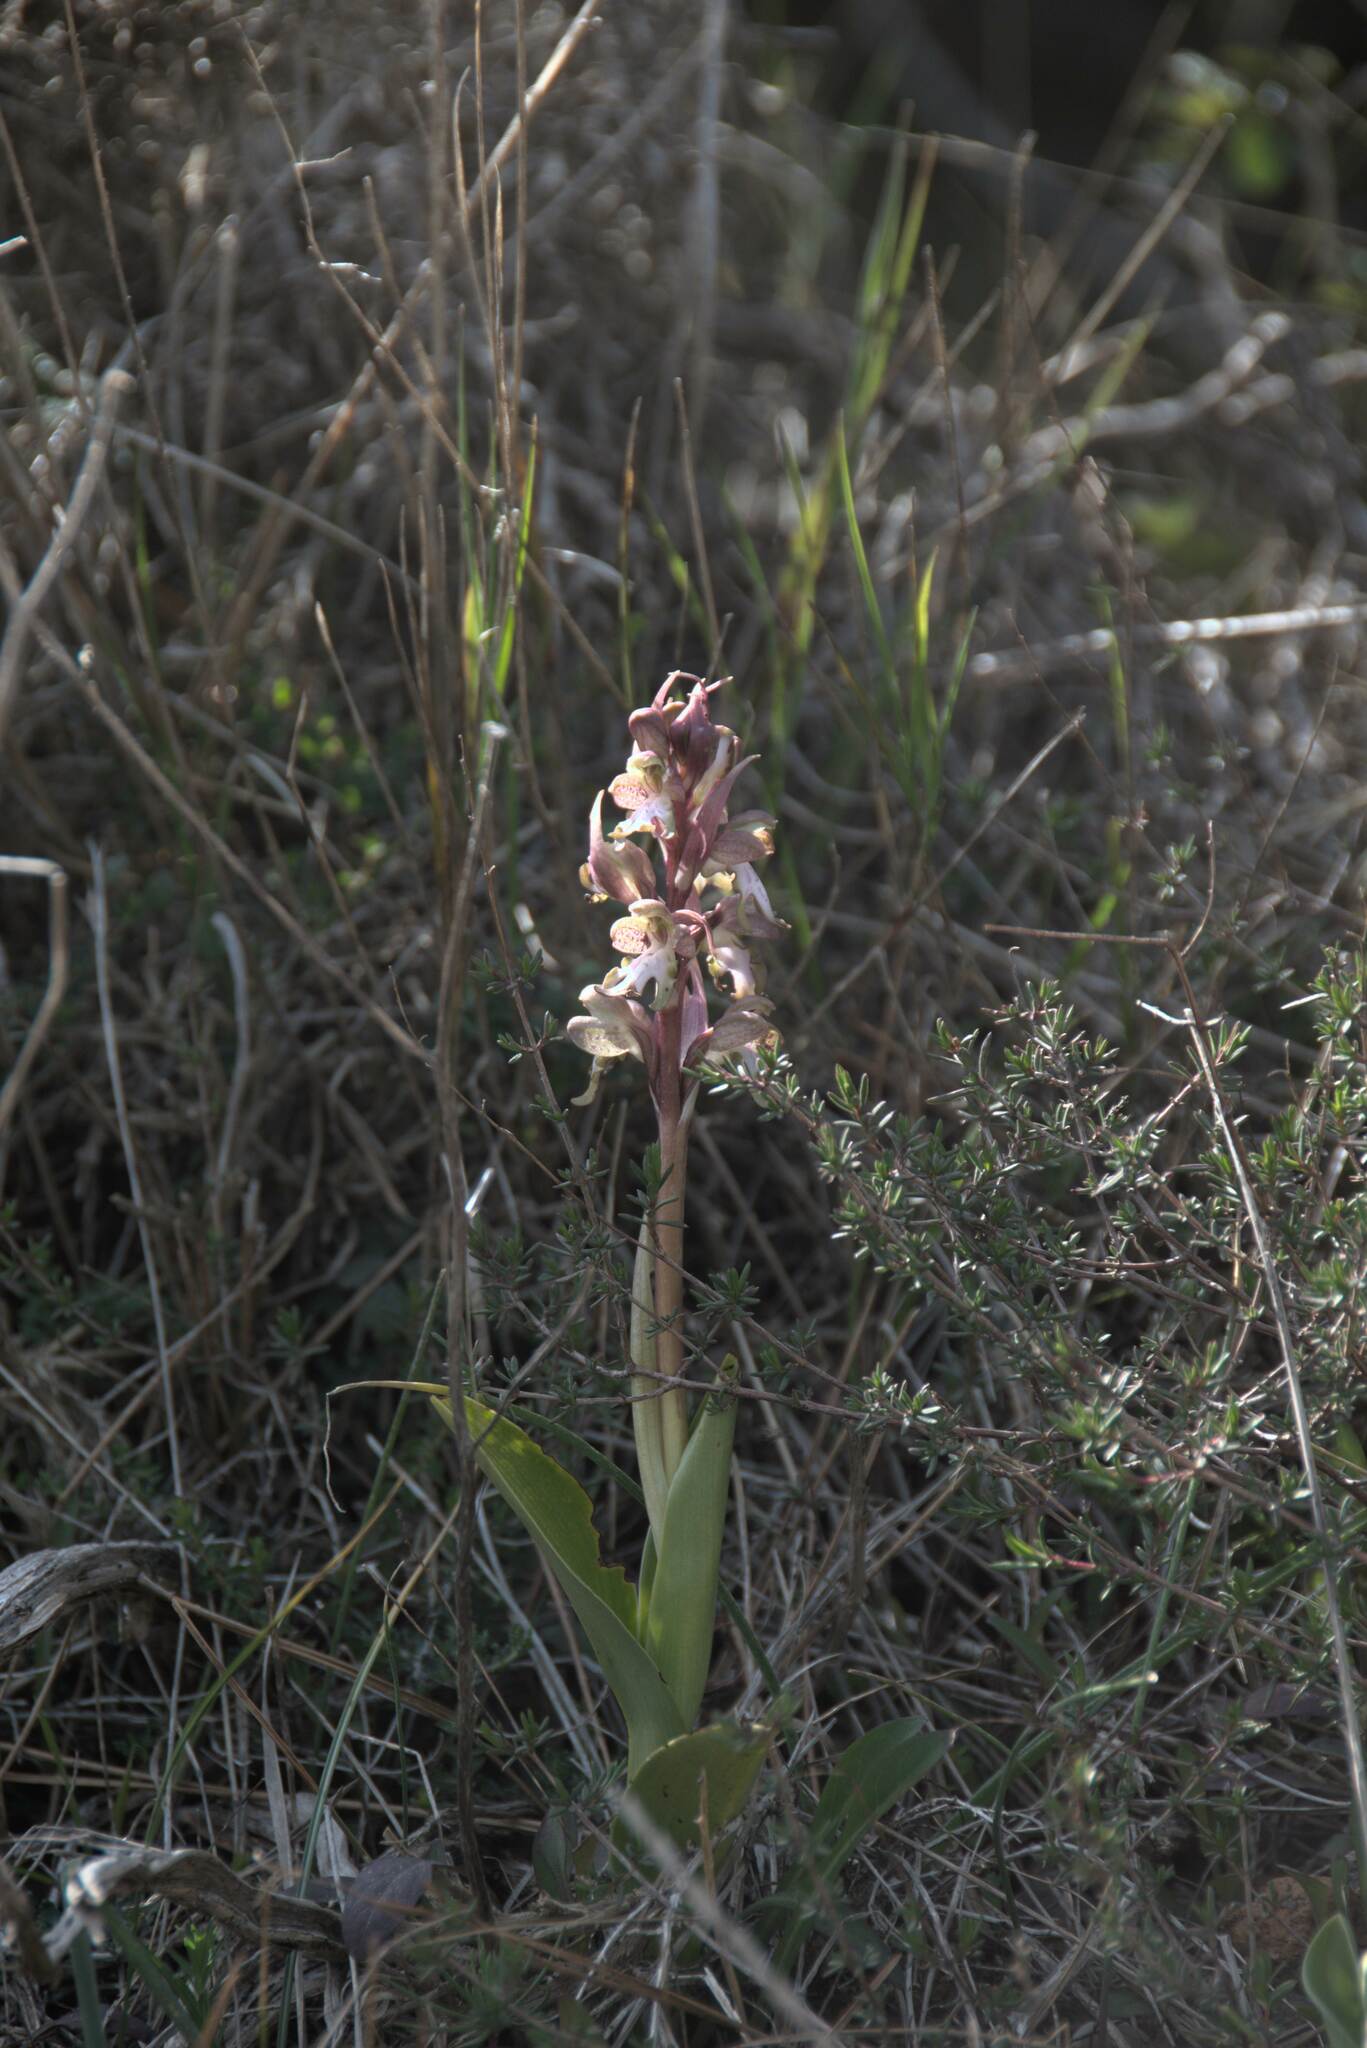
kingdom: Plantae
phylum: Tracheophyta
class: Liliopsida
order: Asparagales
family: Orchidaceae
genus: Himantoglossum
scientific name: Himantoglossum robertianum
